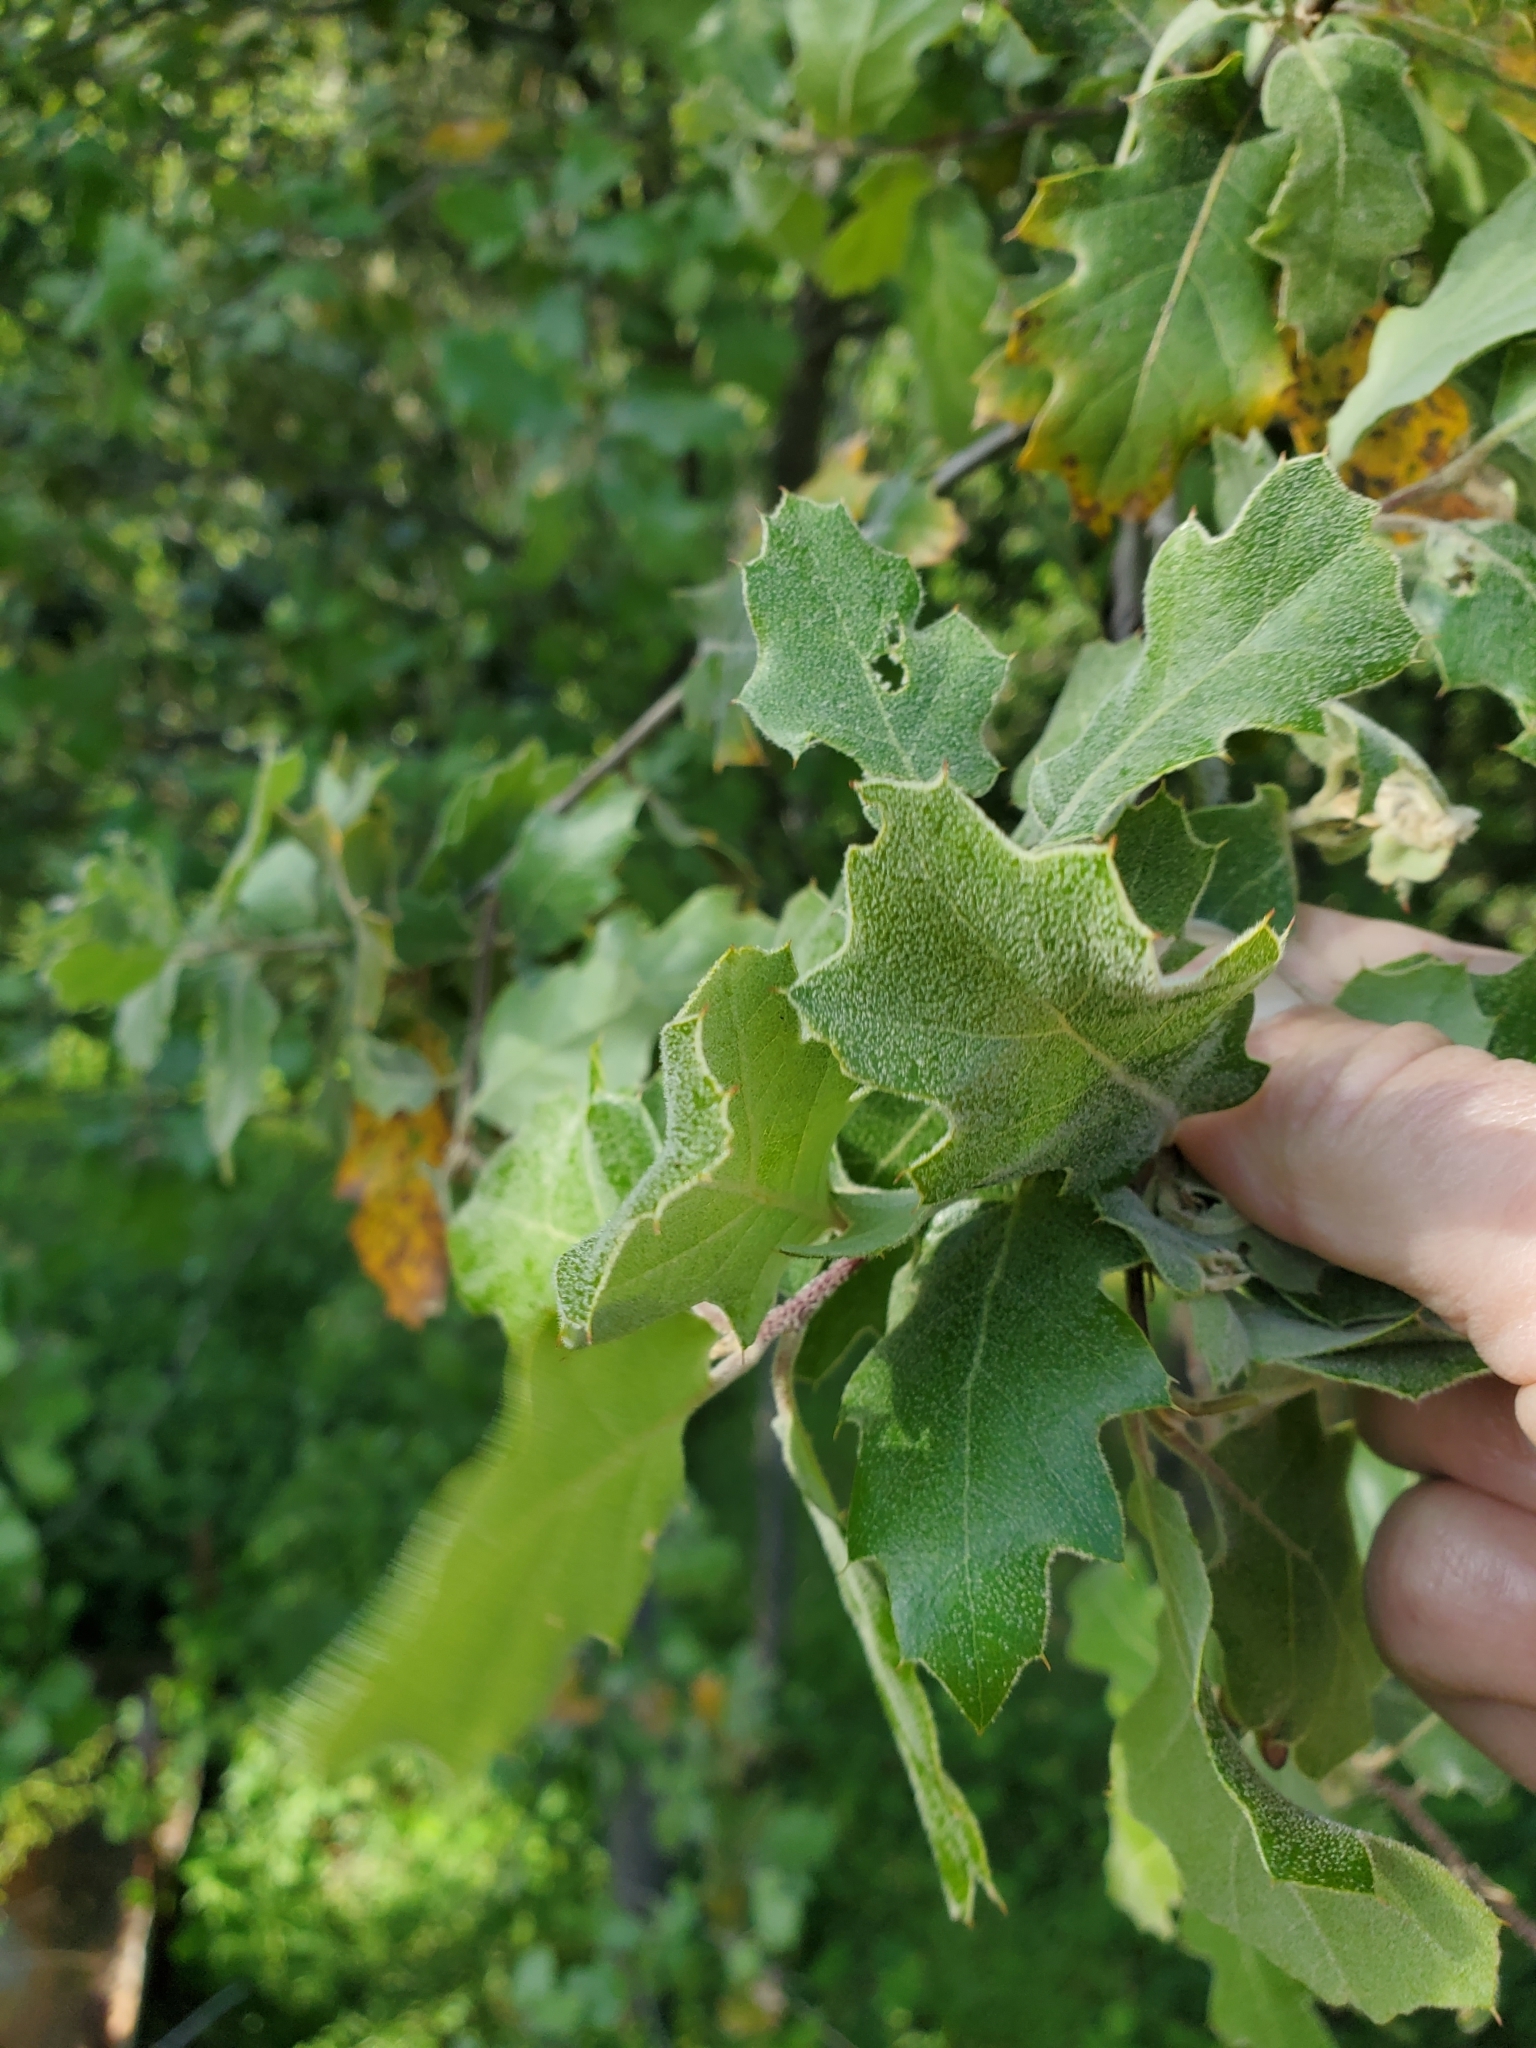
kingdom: Plantae
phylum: Tracheophyta
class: Magnoliopsida
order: Fagales
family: Fagaceae
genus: Quercus
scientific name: Quercus morehus
